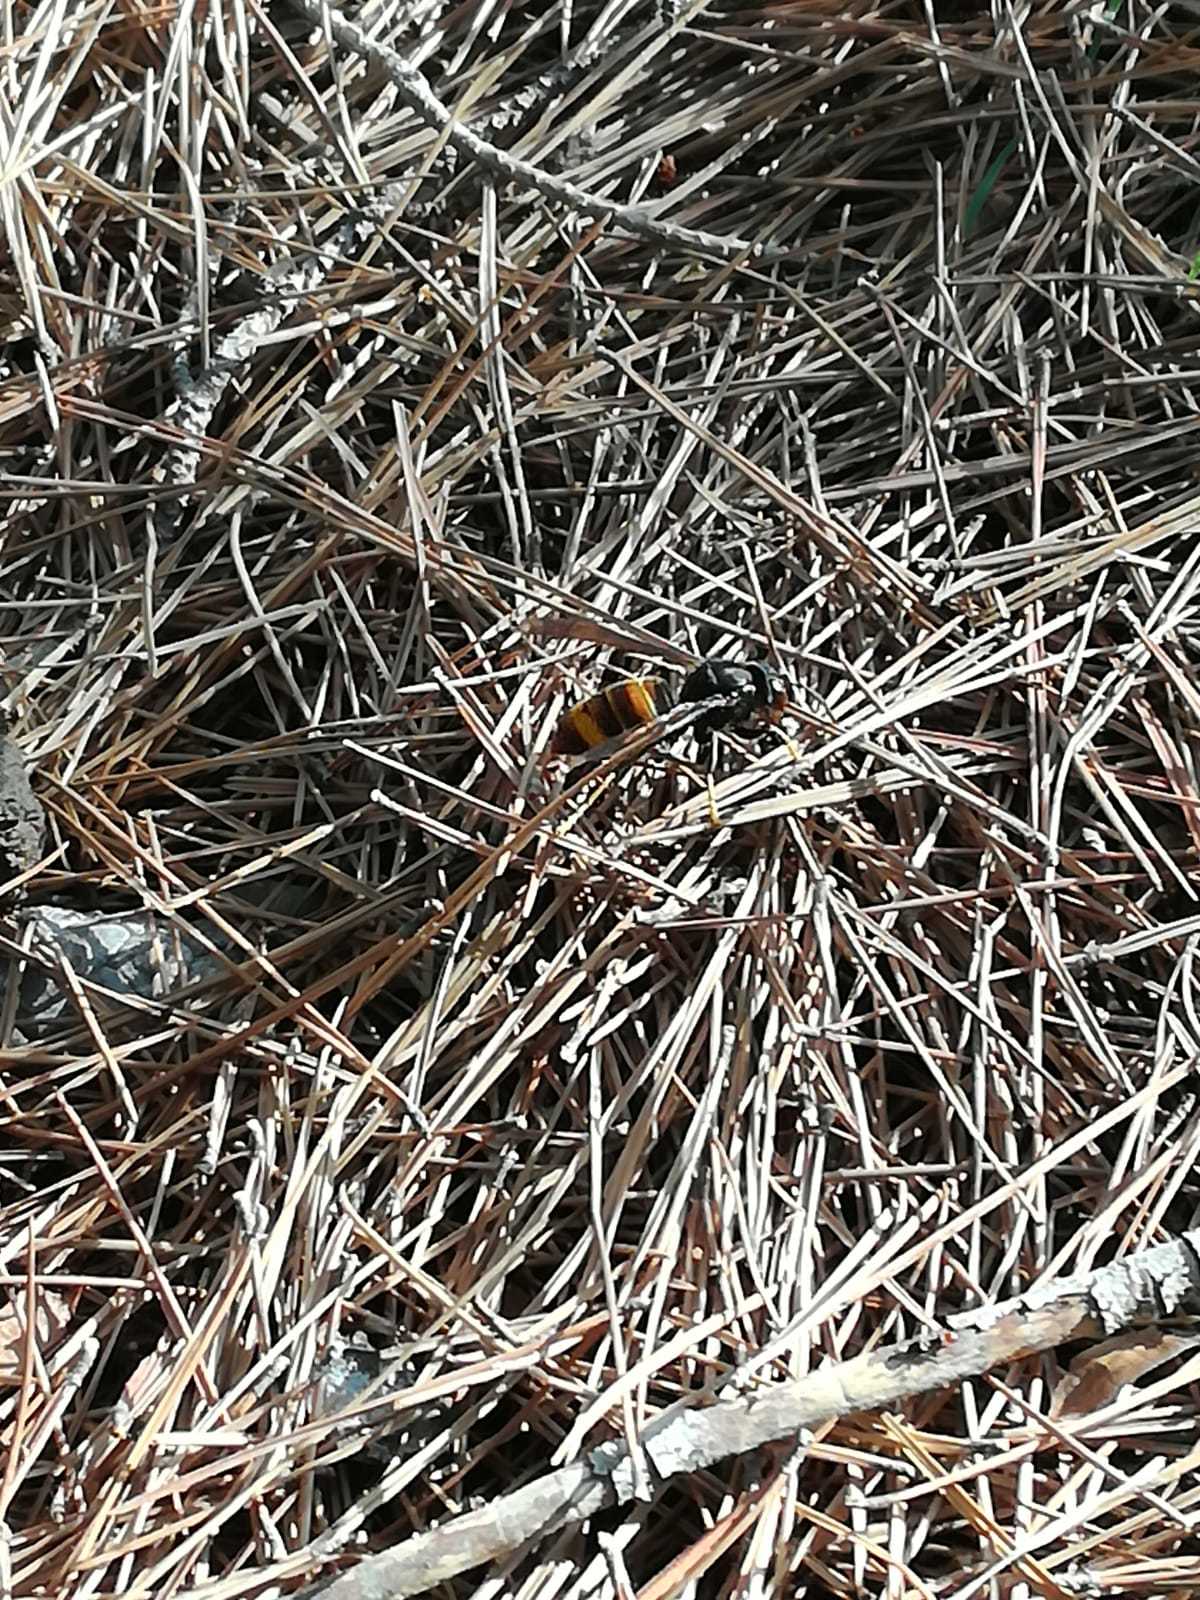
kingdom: Animalia
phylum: Arthropoda
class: Insecta
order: Hymenoptera
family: Vespidae
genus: Vespa
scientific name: Vespa velutina
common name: Asian hornet
